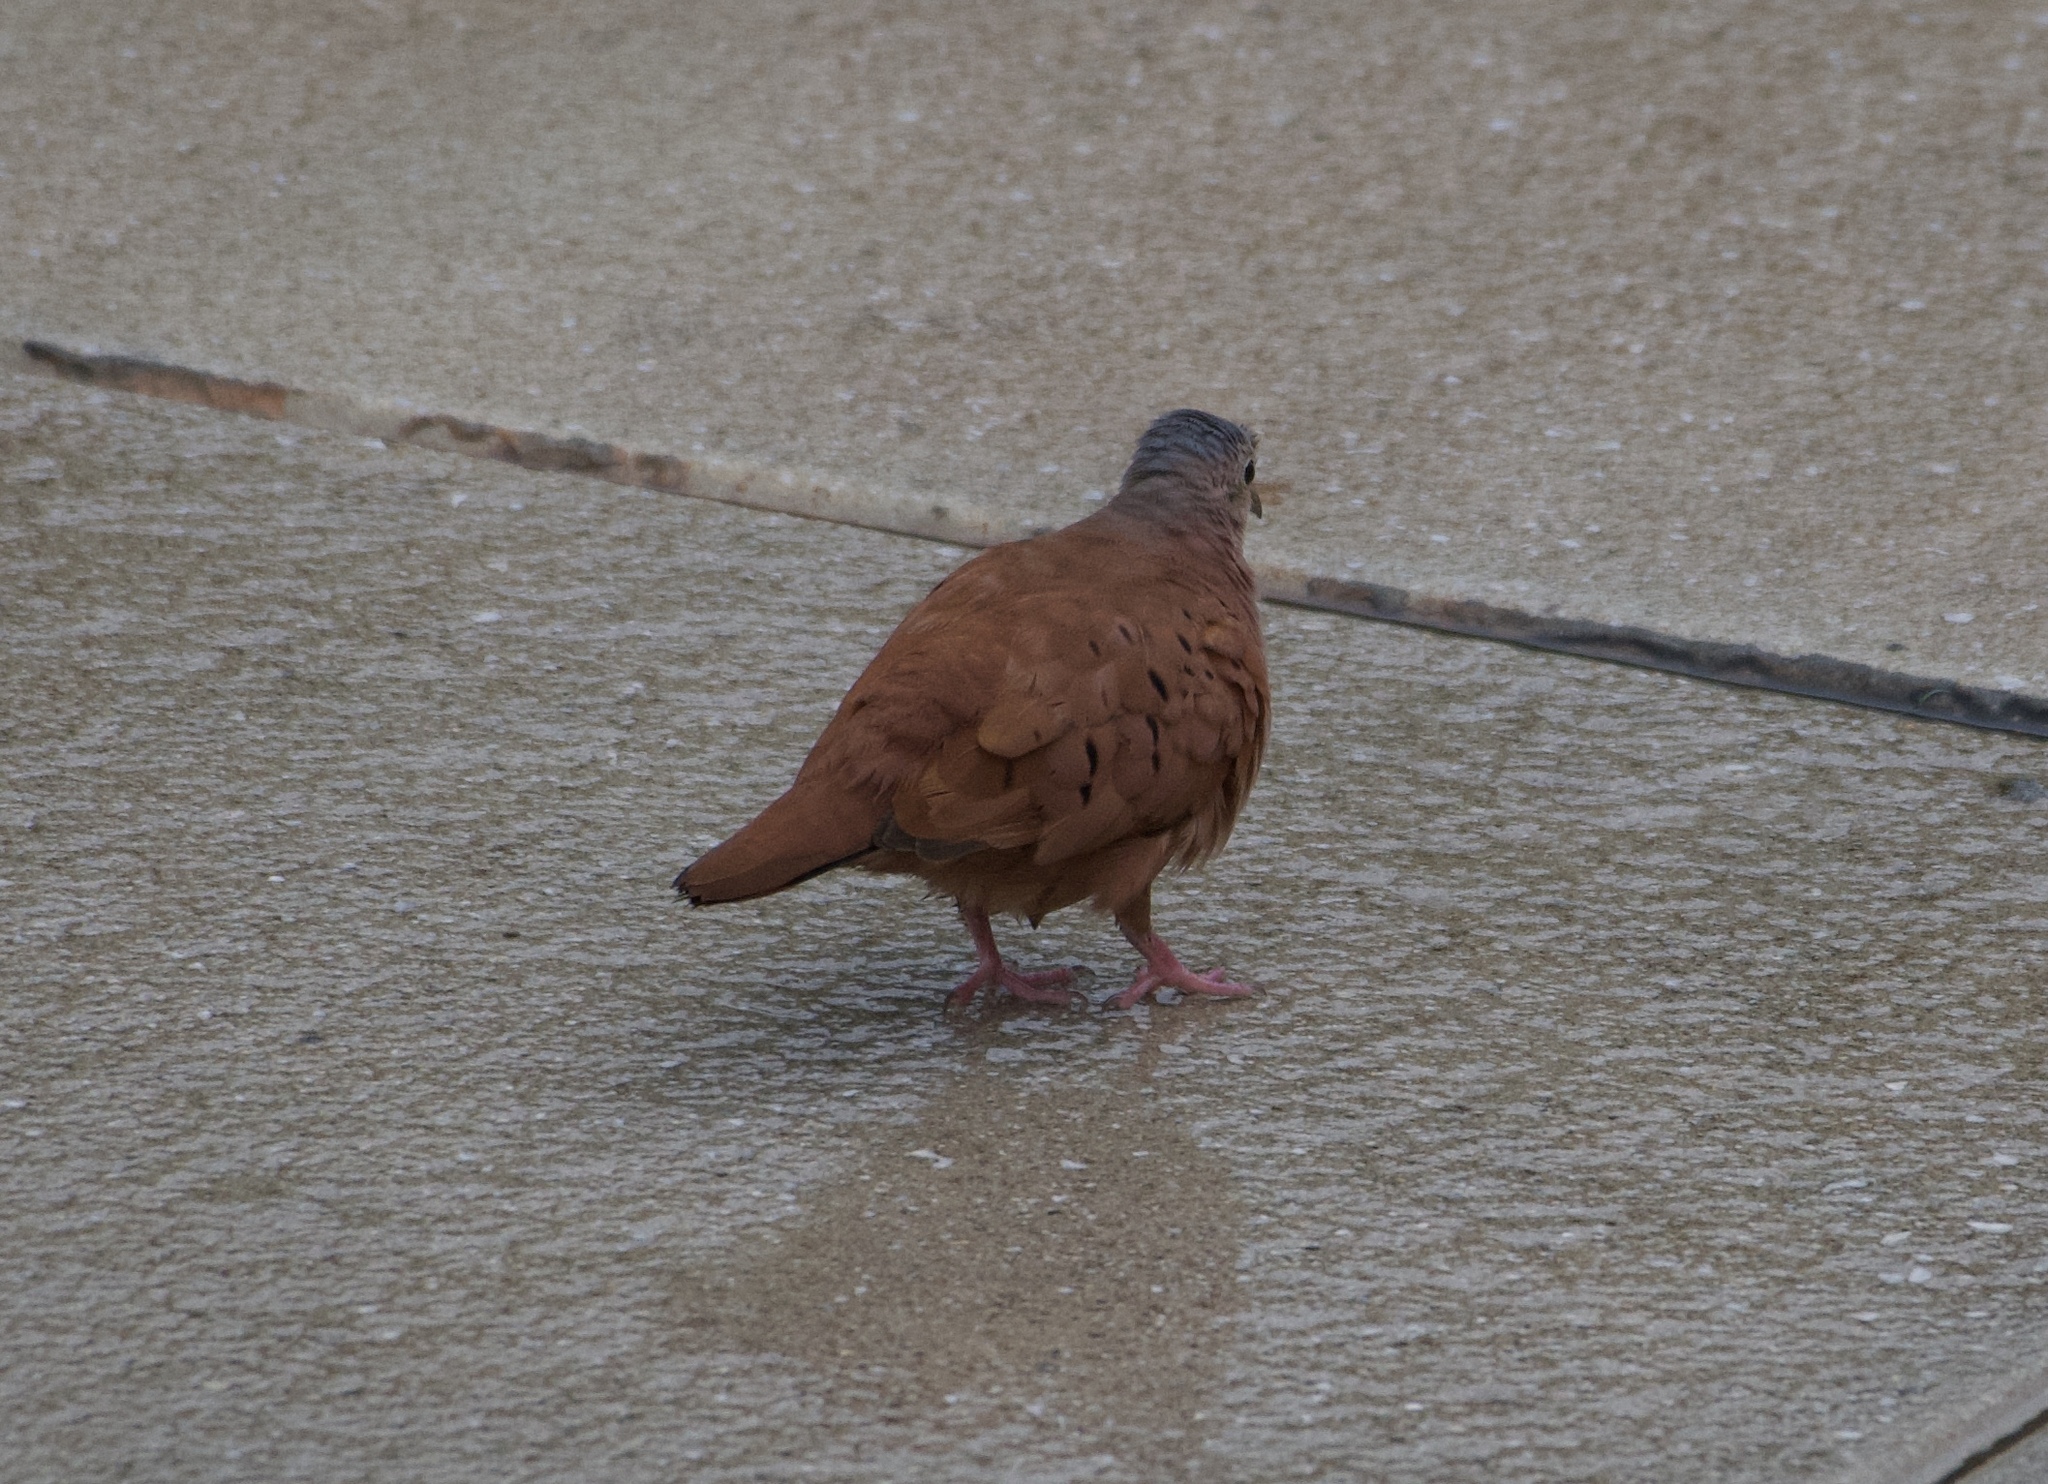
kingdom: Animalia
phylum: Chordata
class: Aves
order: Columbiformes
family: Columbidae
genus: Columbina
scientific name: Columbina talpacoti
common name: Ruddy ground dove
